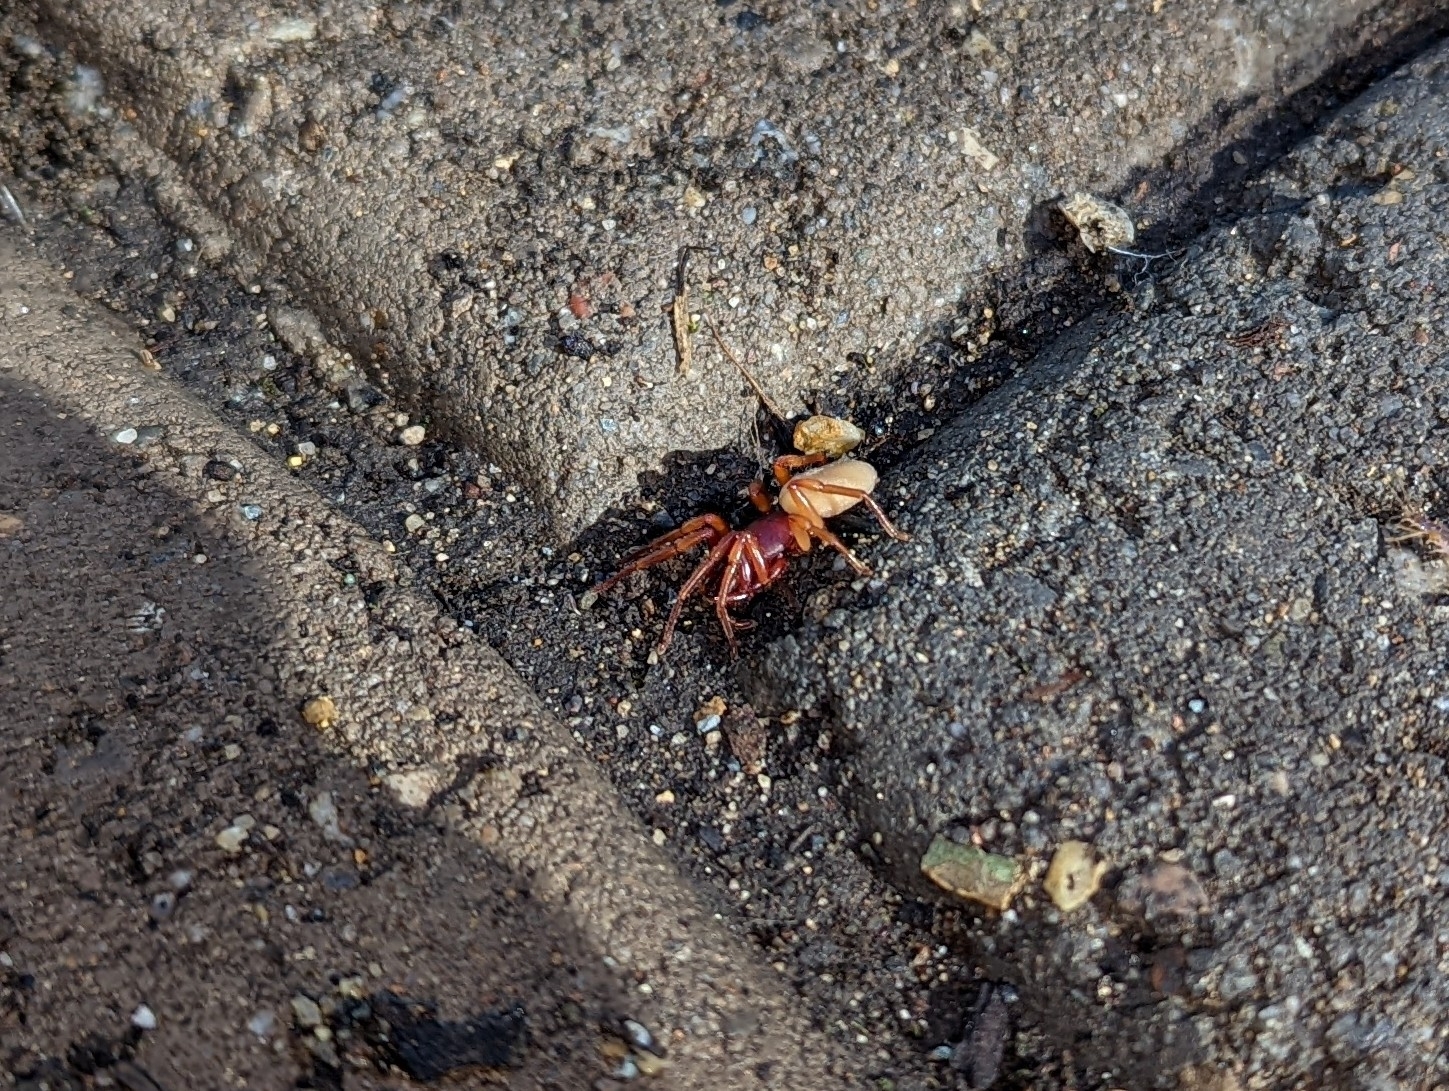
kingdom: Animalia
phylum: Arthropoda
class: Arachnida
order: Araneae
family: Dysderidae
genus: Dysdera
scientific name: Dysdera crocata
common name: Woodlouse spider
